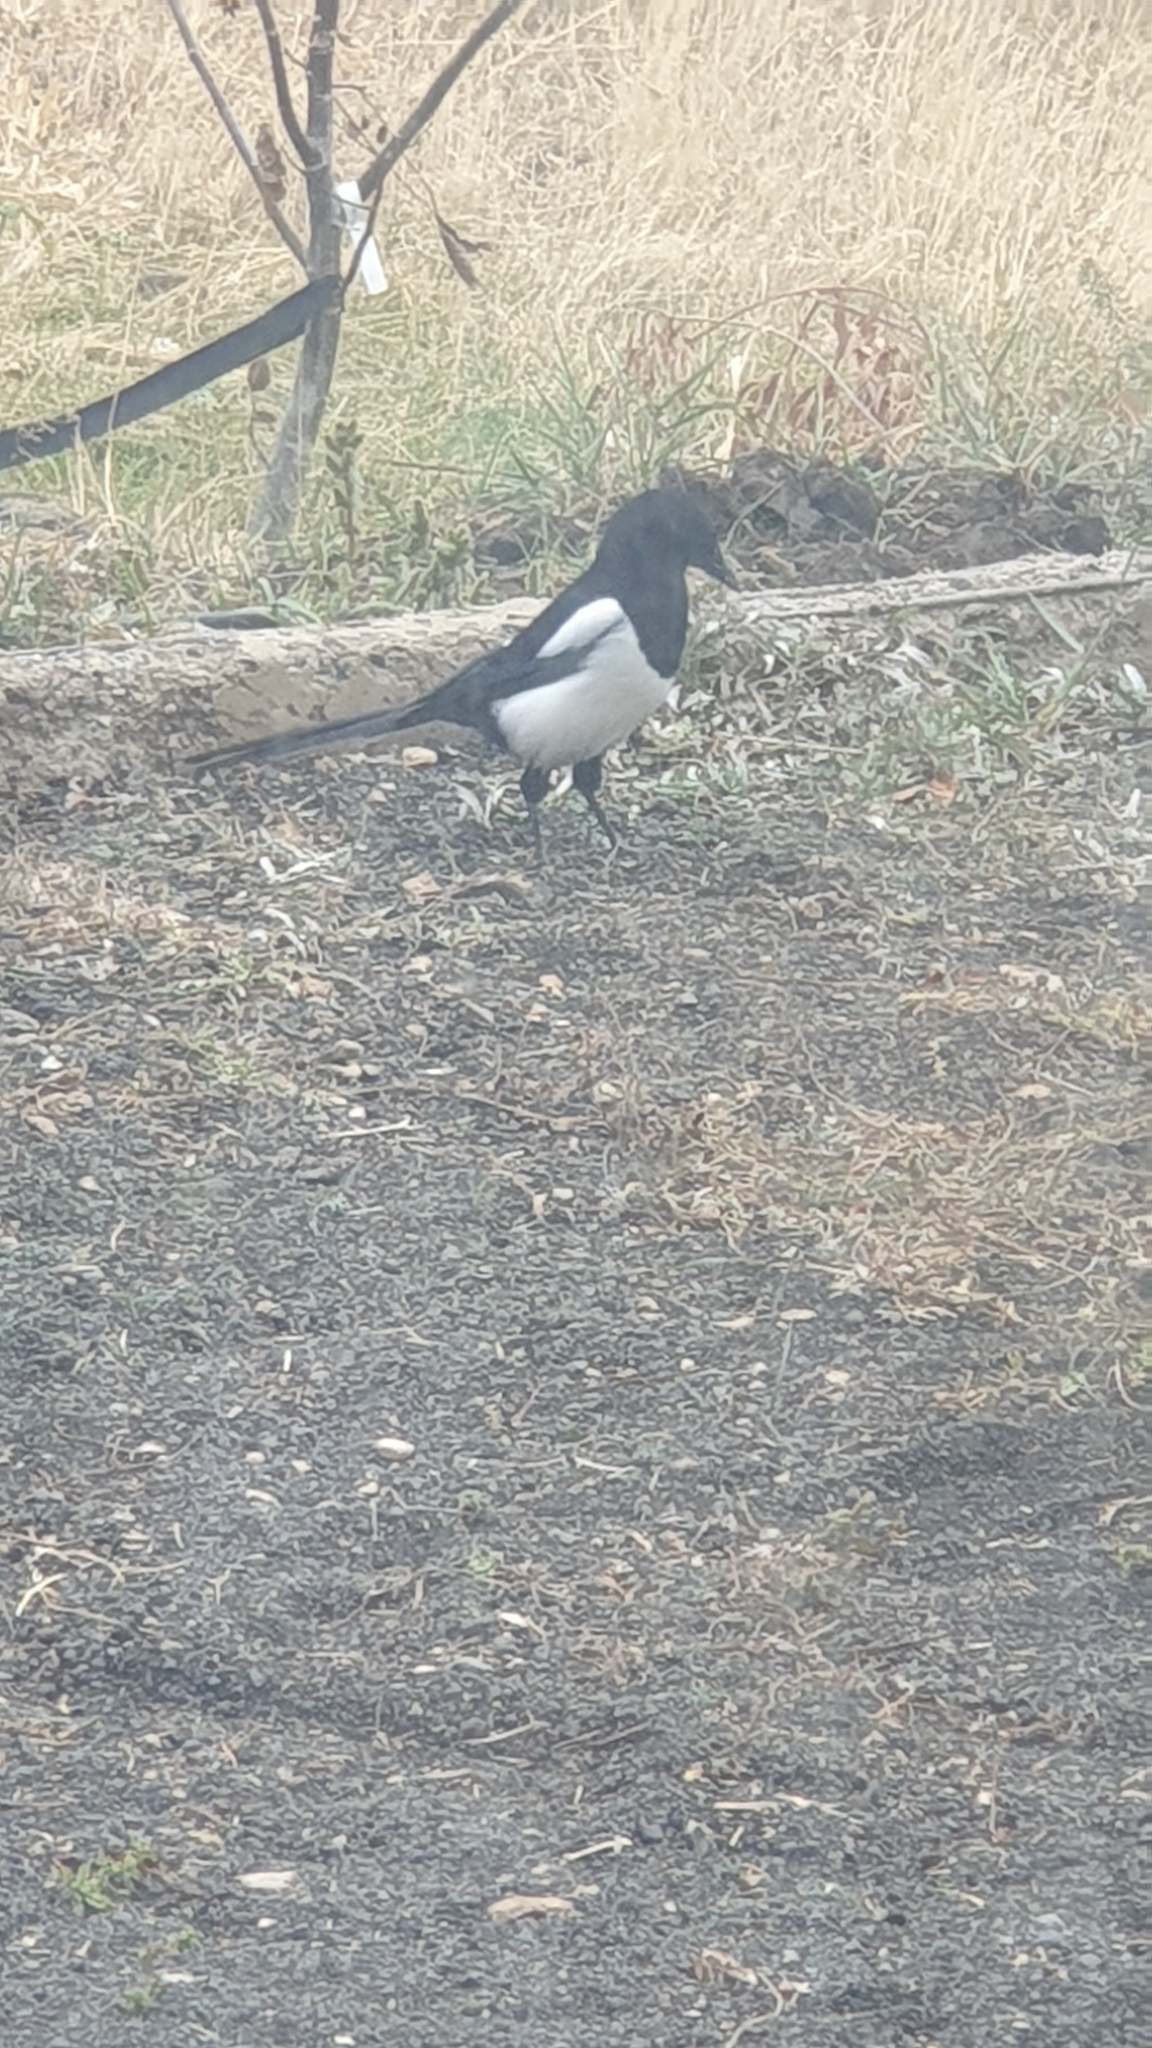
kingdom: Animalia
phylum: Chordata
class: Aves
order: Passeriformes
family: Corvidae
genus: Pica
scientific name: Pica pica
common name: Eurasian magpie
